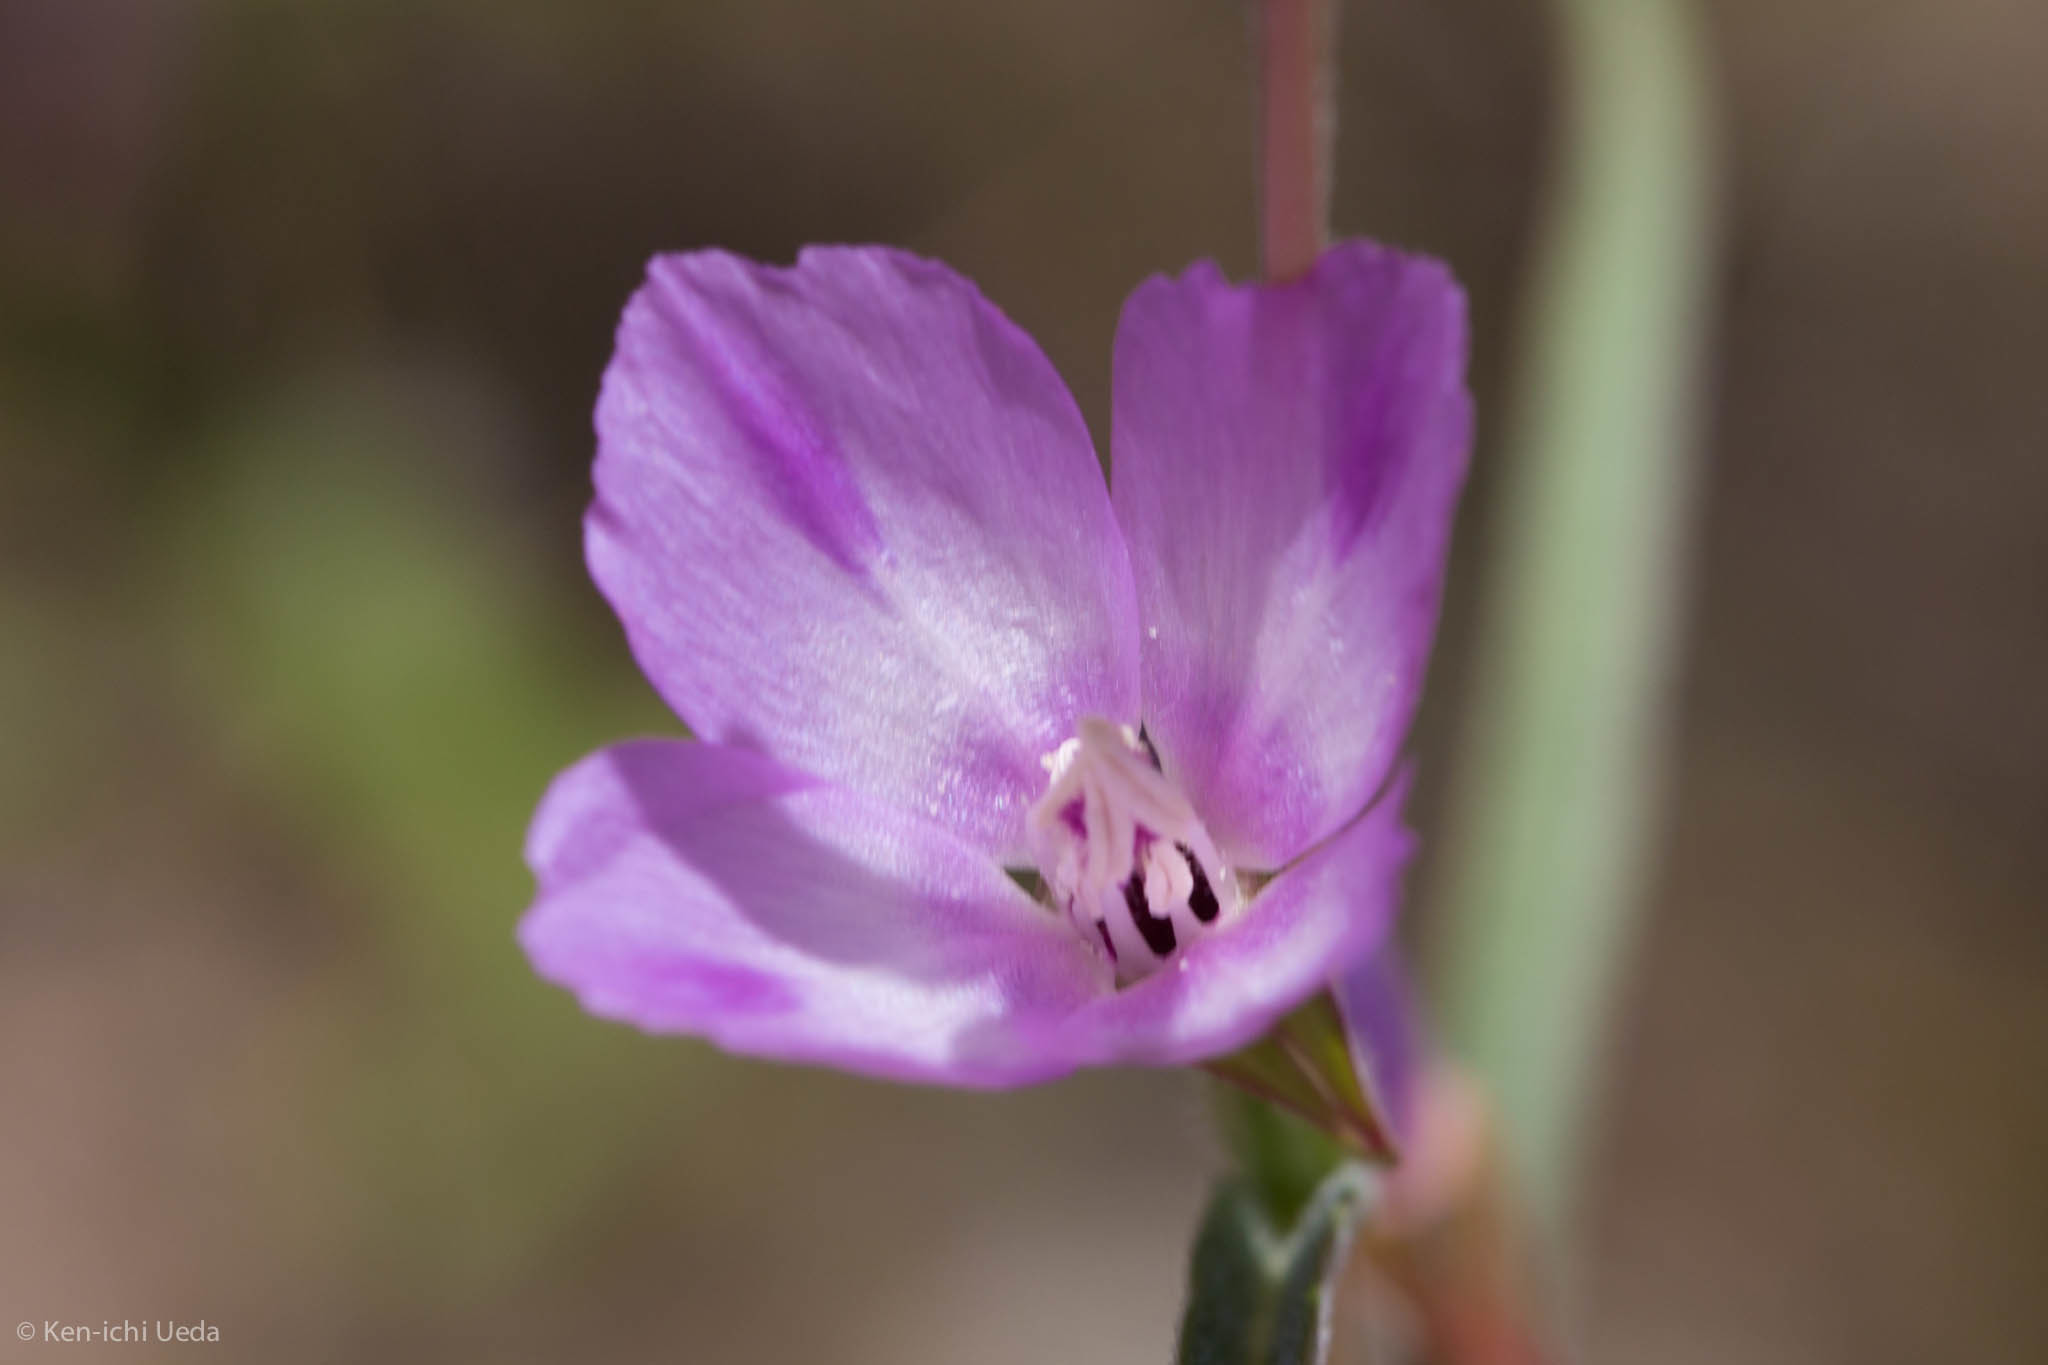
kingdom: Plantae
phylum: Tracheophyta
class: Magnoliopsida
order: Myrtales
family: Onagraceae
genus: Clarkia
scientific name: Clarkia purpurea
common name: Purple clarkia
